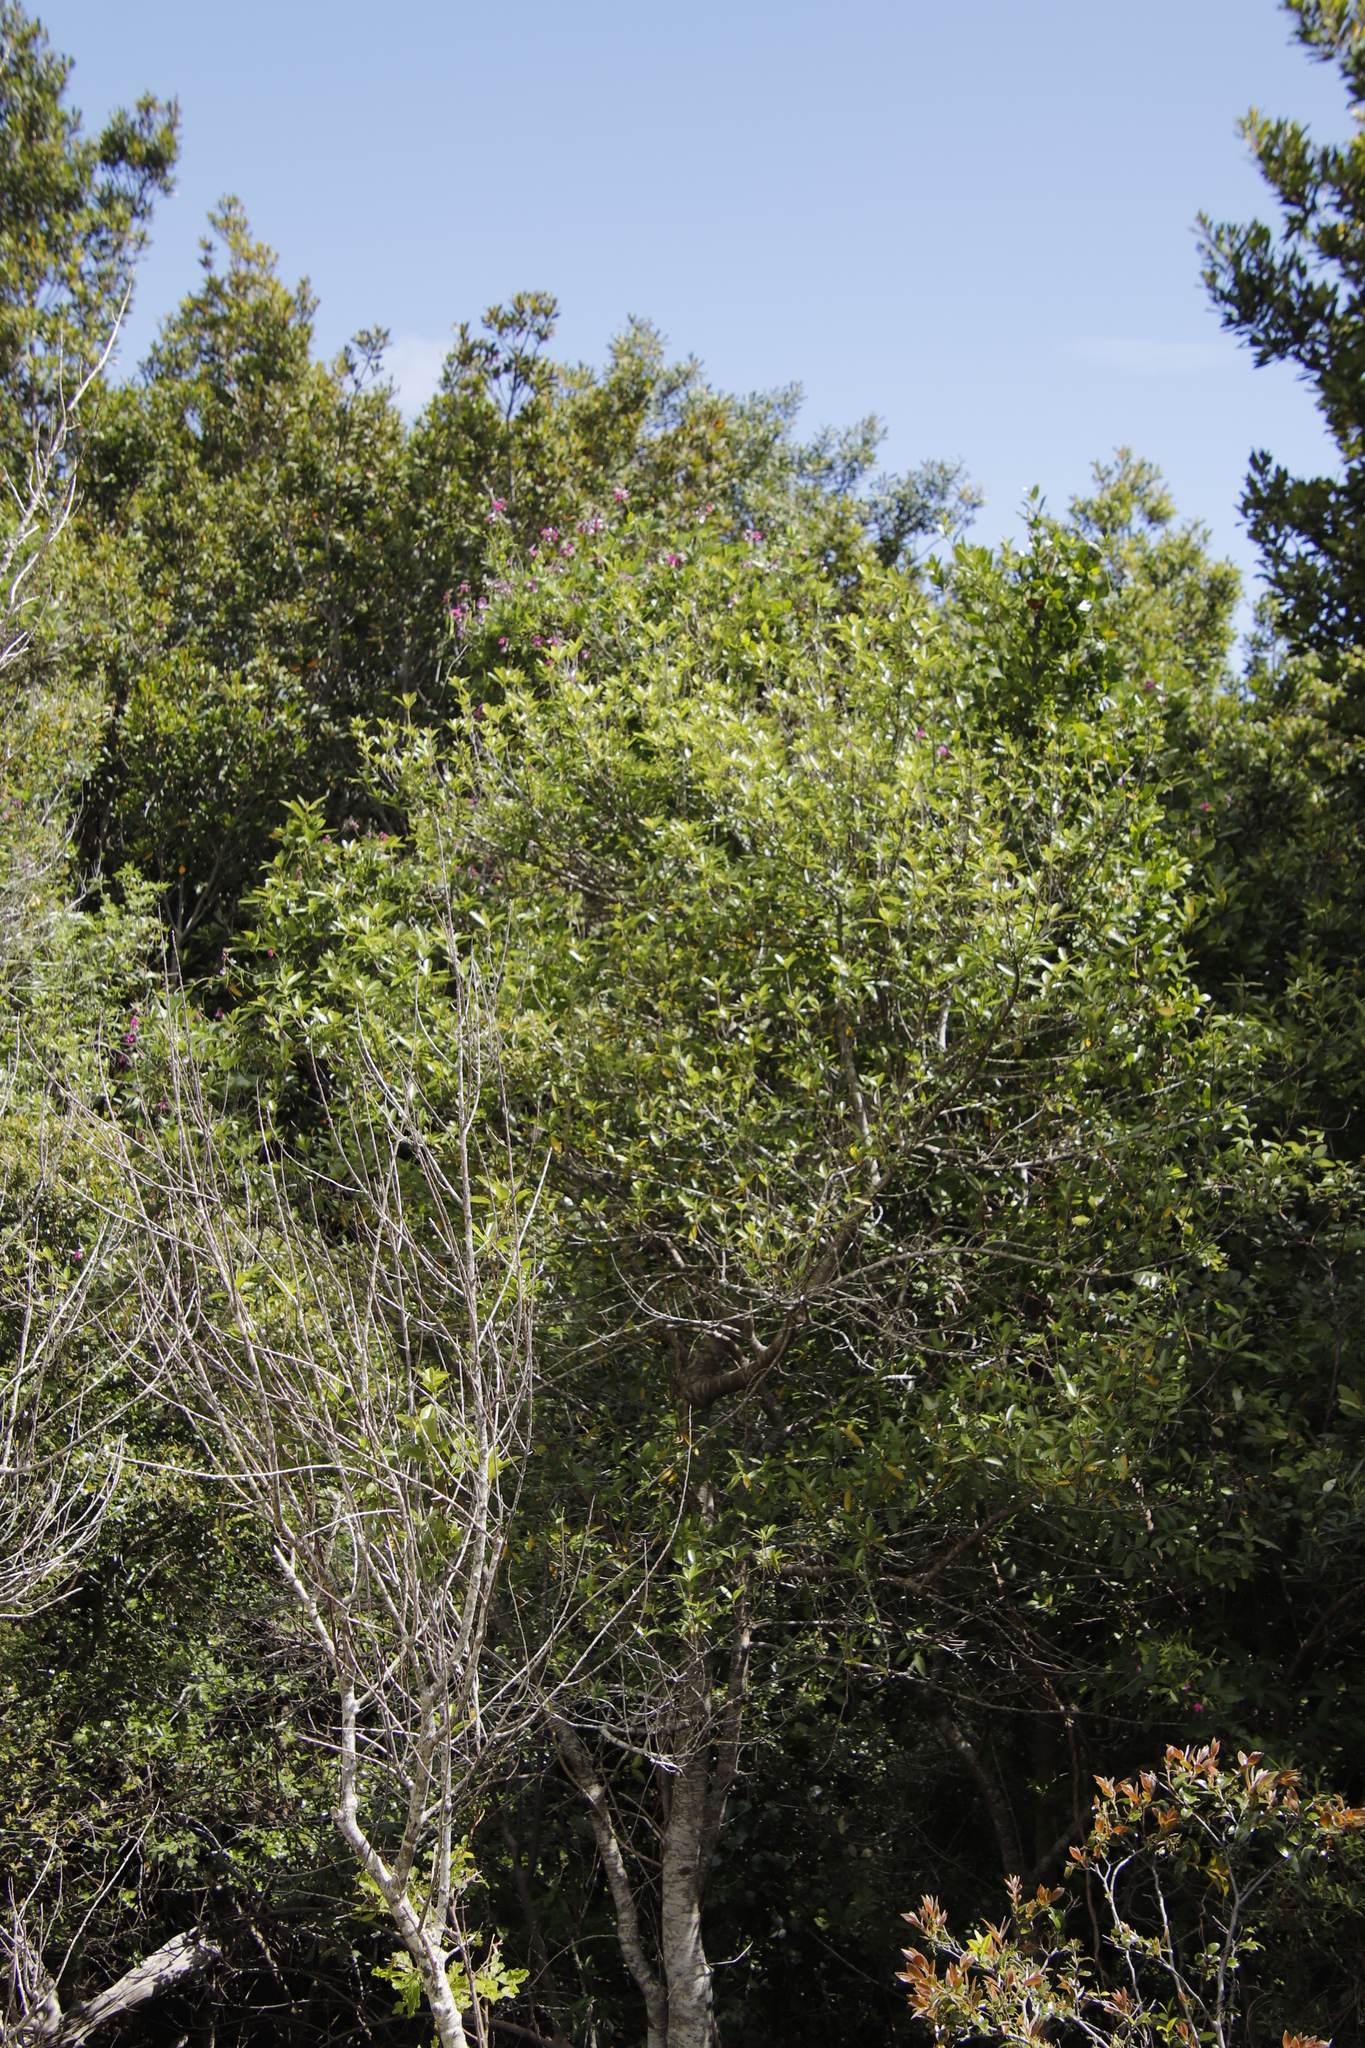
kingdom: Plantae
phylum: Tracheophyta
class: Magnoliopsida
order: Malpighiales
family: Achariaceae
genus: Kiggelaria
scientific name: Kiggelaria africana
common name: Wild peach
